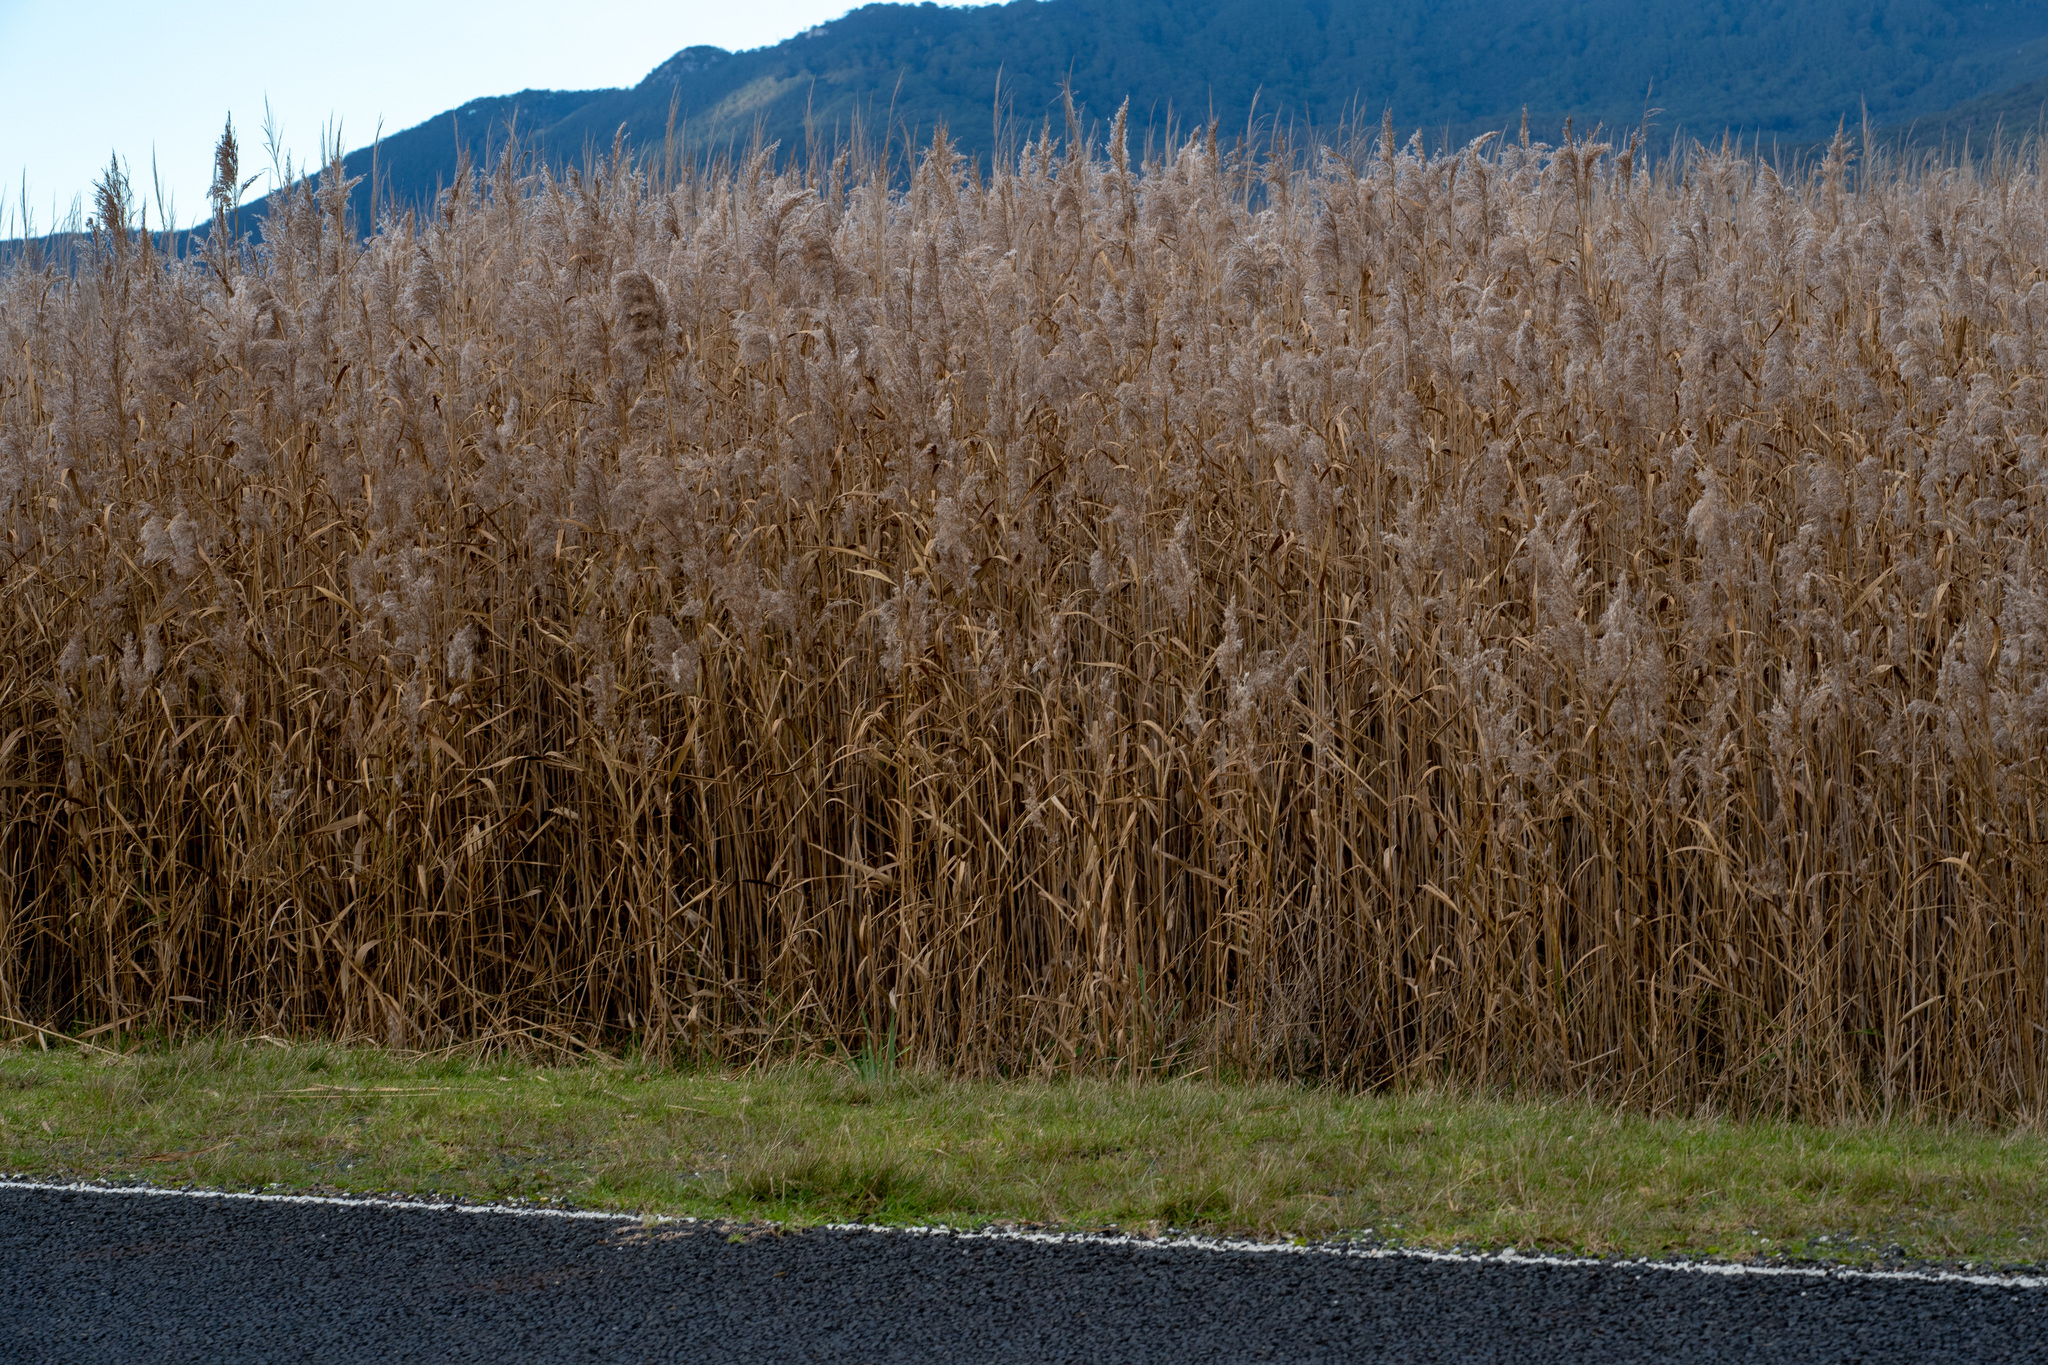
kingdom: Plantae
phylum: Tracheophyta
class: Liliopsida
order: Poales
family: Poaceae
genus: Phragmites
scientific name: Phragmites australis
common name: Common reed
